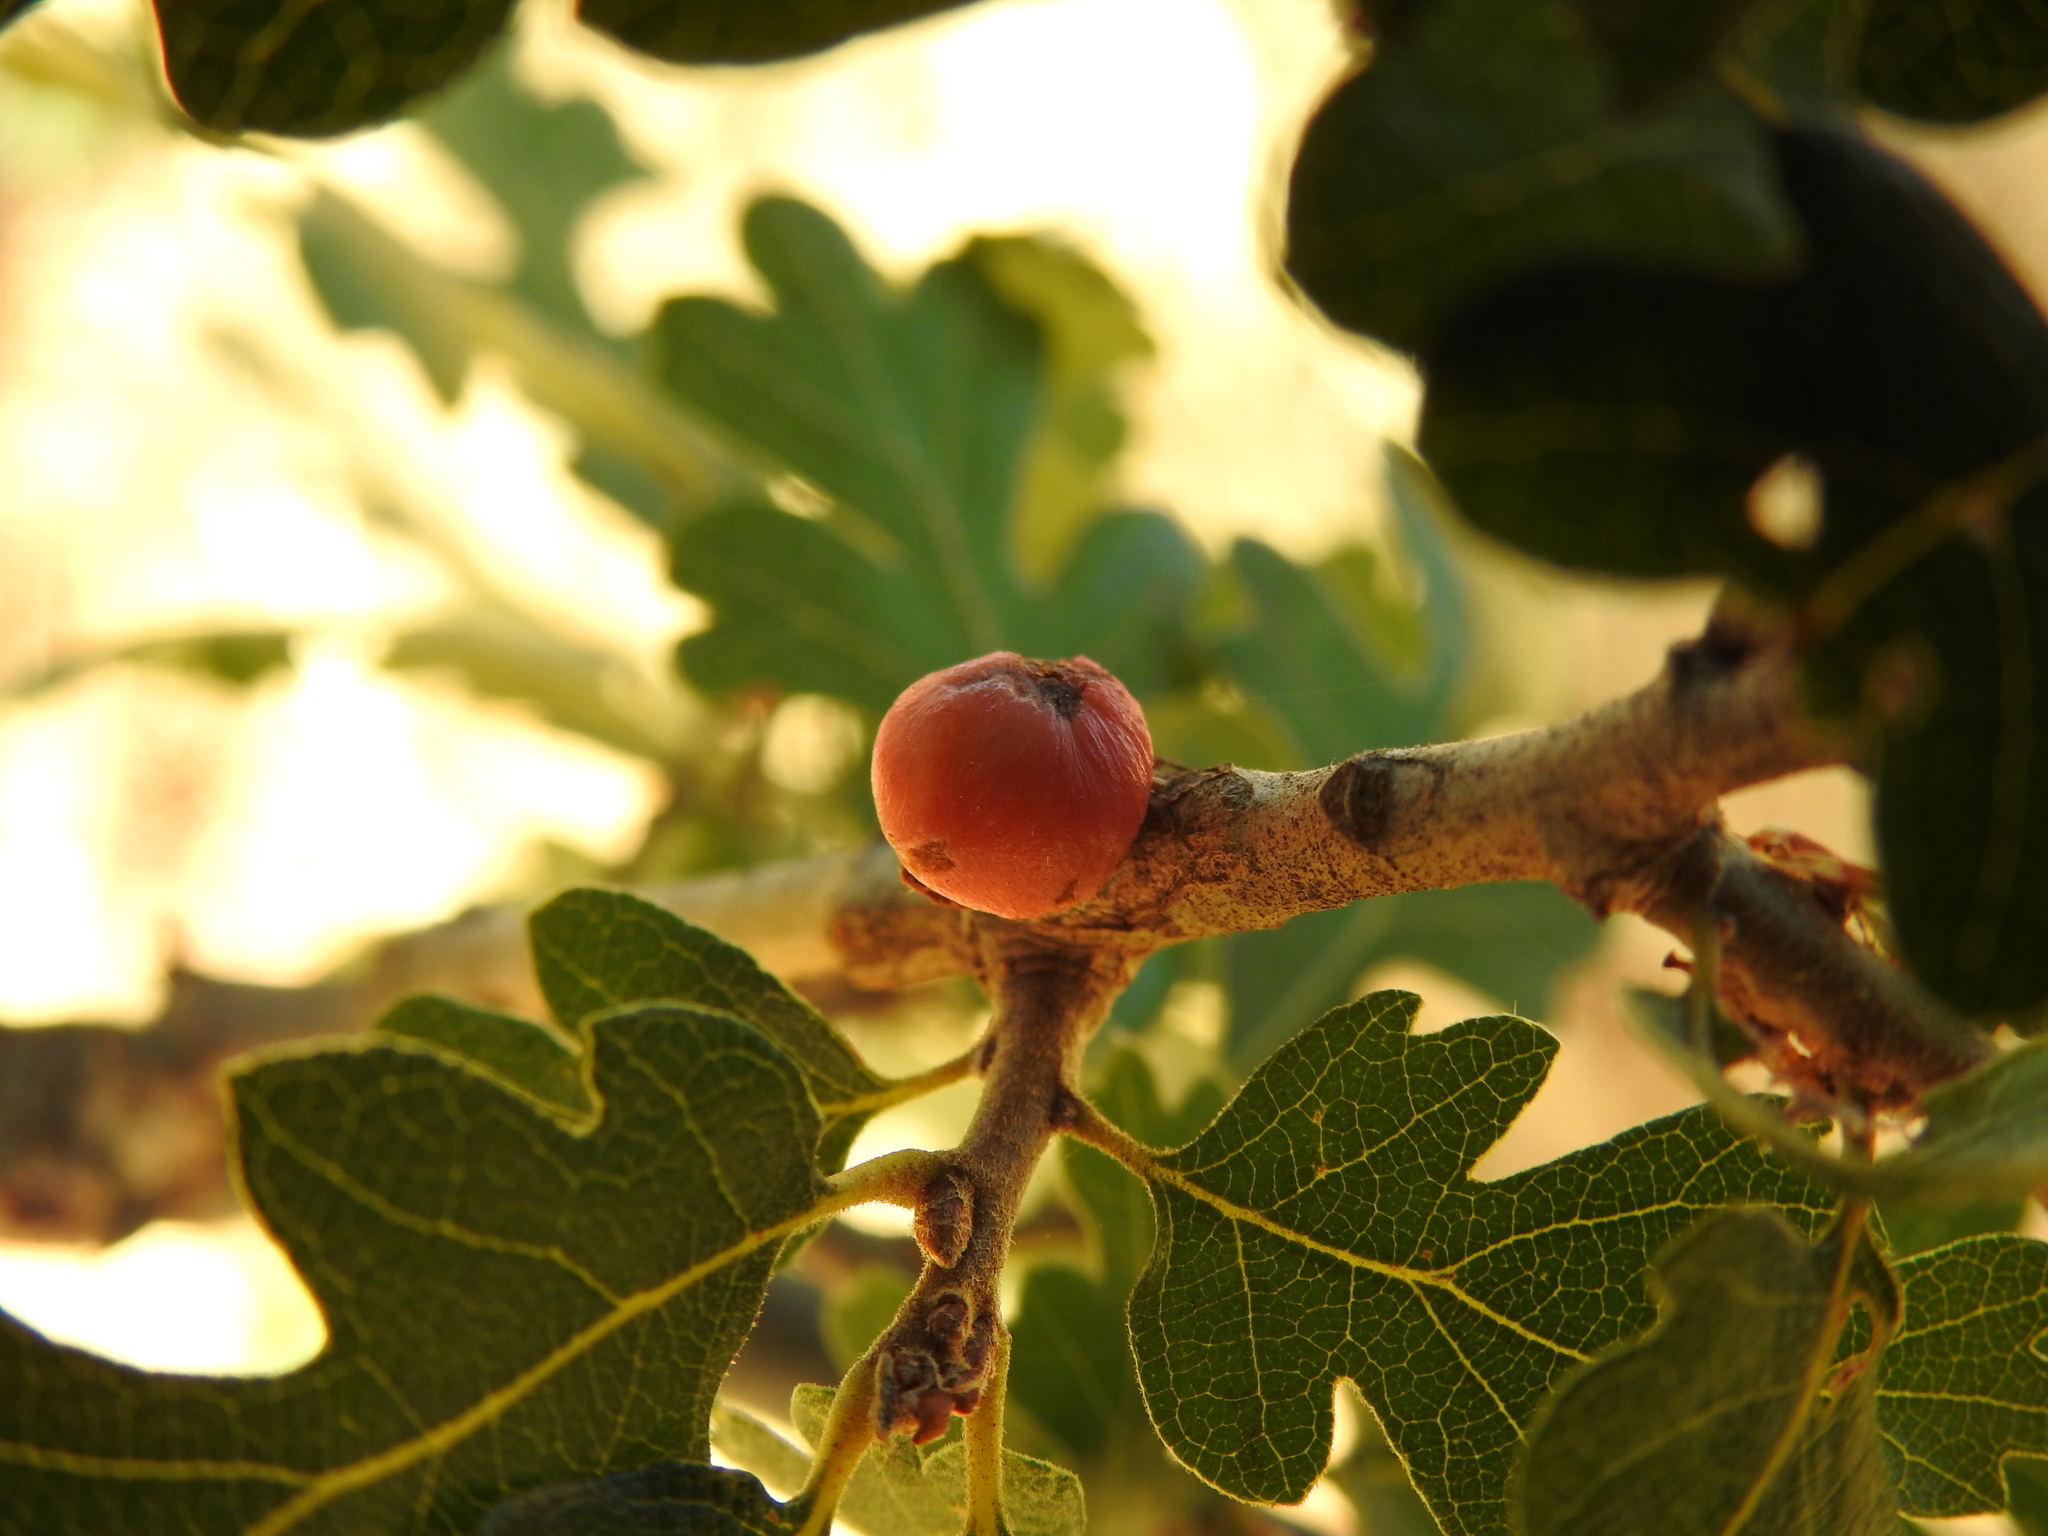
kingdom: Animalia
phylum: Arthropoda
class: Insecta
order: Hymenoptera
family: Cynipidae
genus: Andricus
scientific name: Andricus quercuscalifornicus
